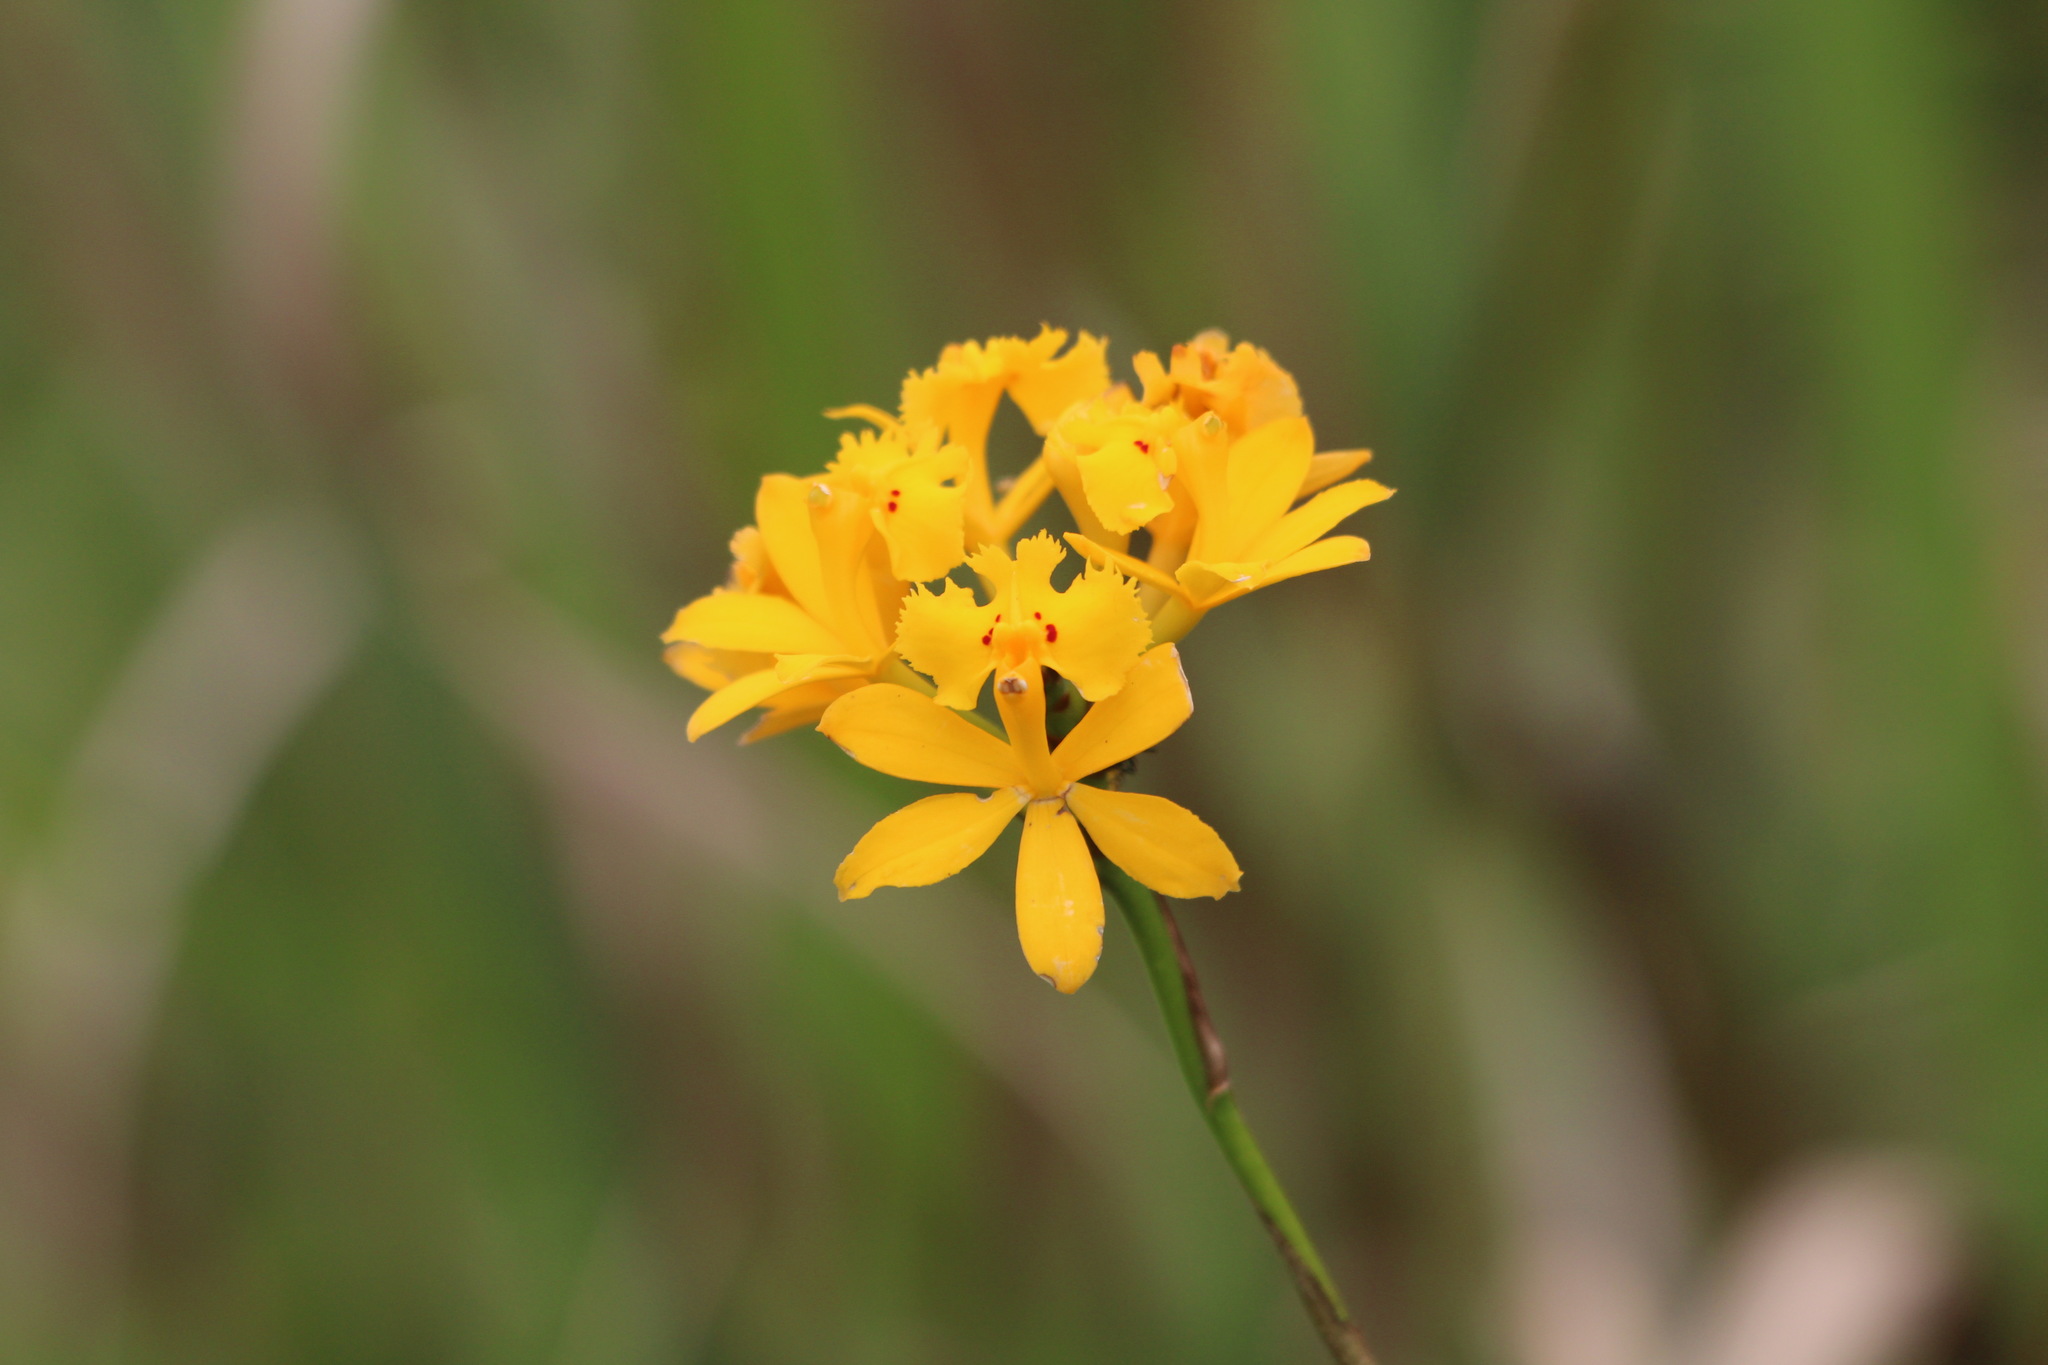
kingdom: Plantae
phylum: Tracheophyta
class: Liliopsida
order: Asparagales
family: Orchidaceae
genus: Epidendrum
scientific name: Epidendrum fulgens
